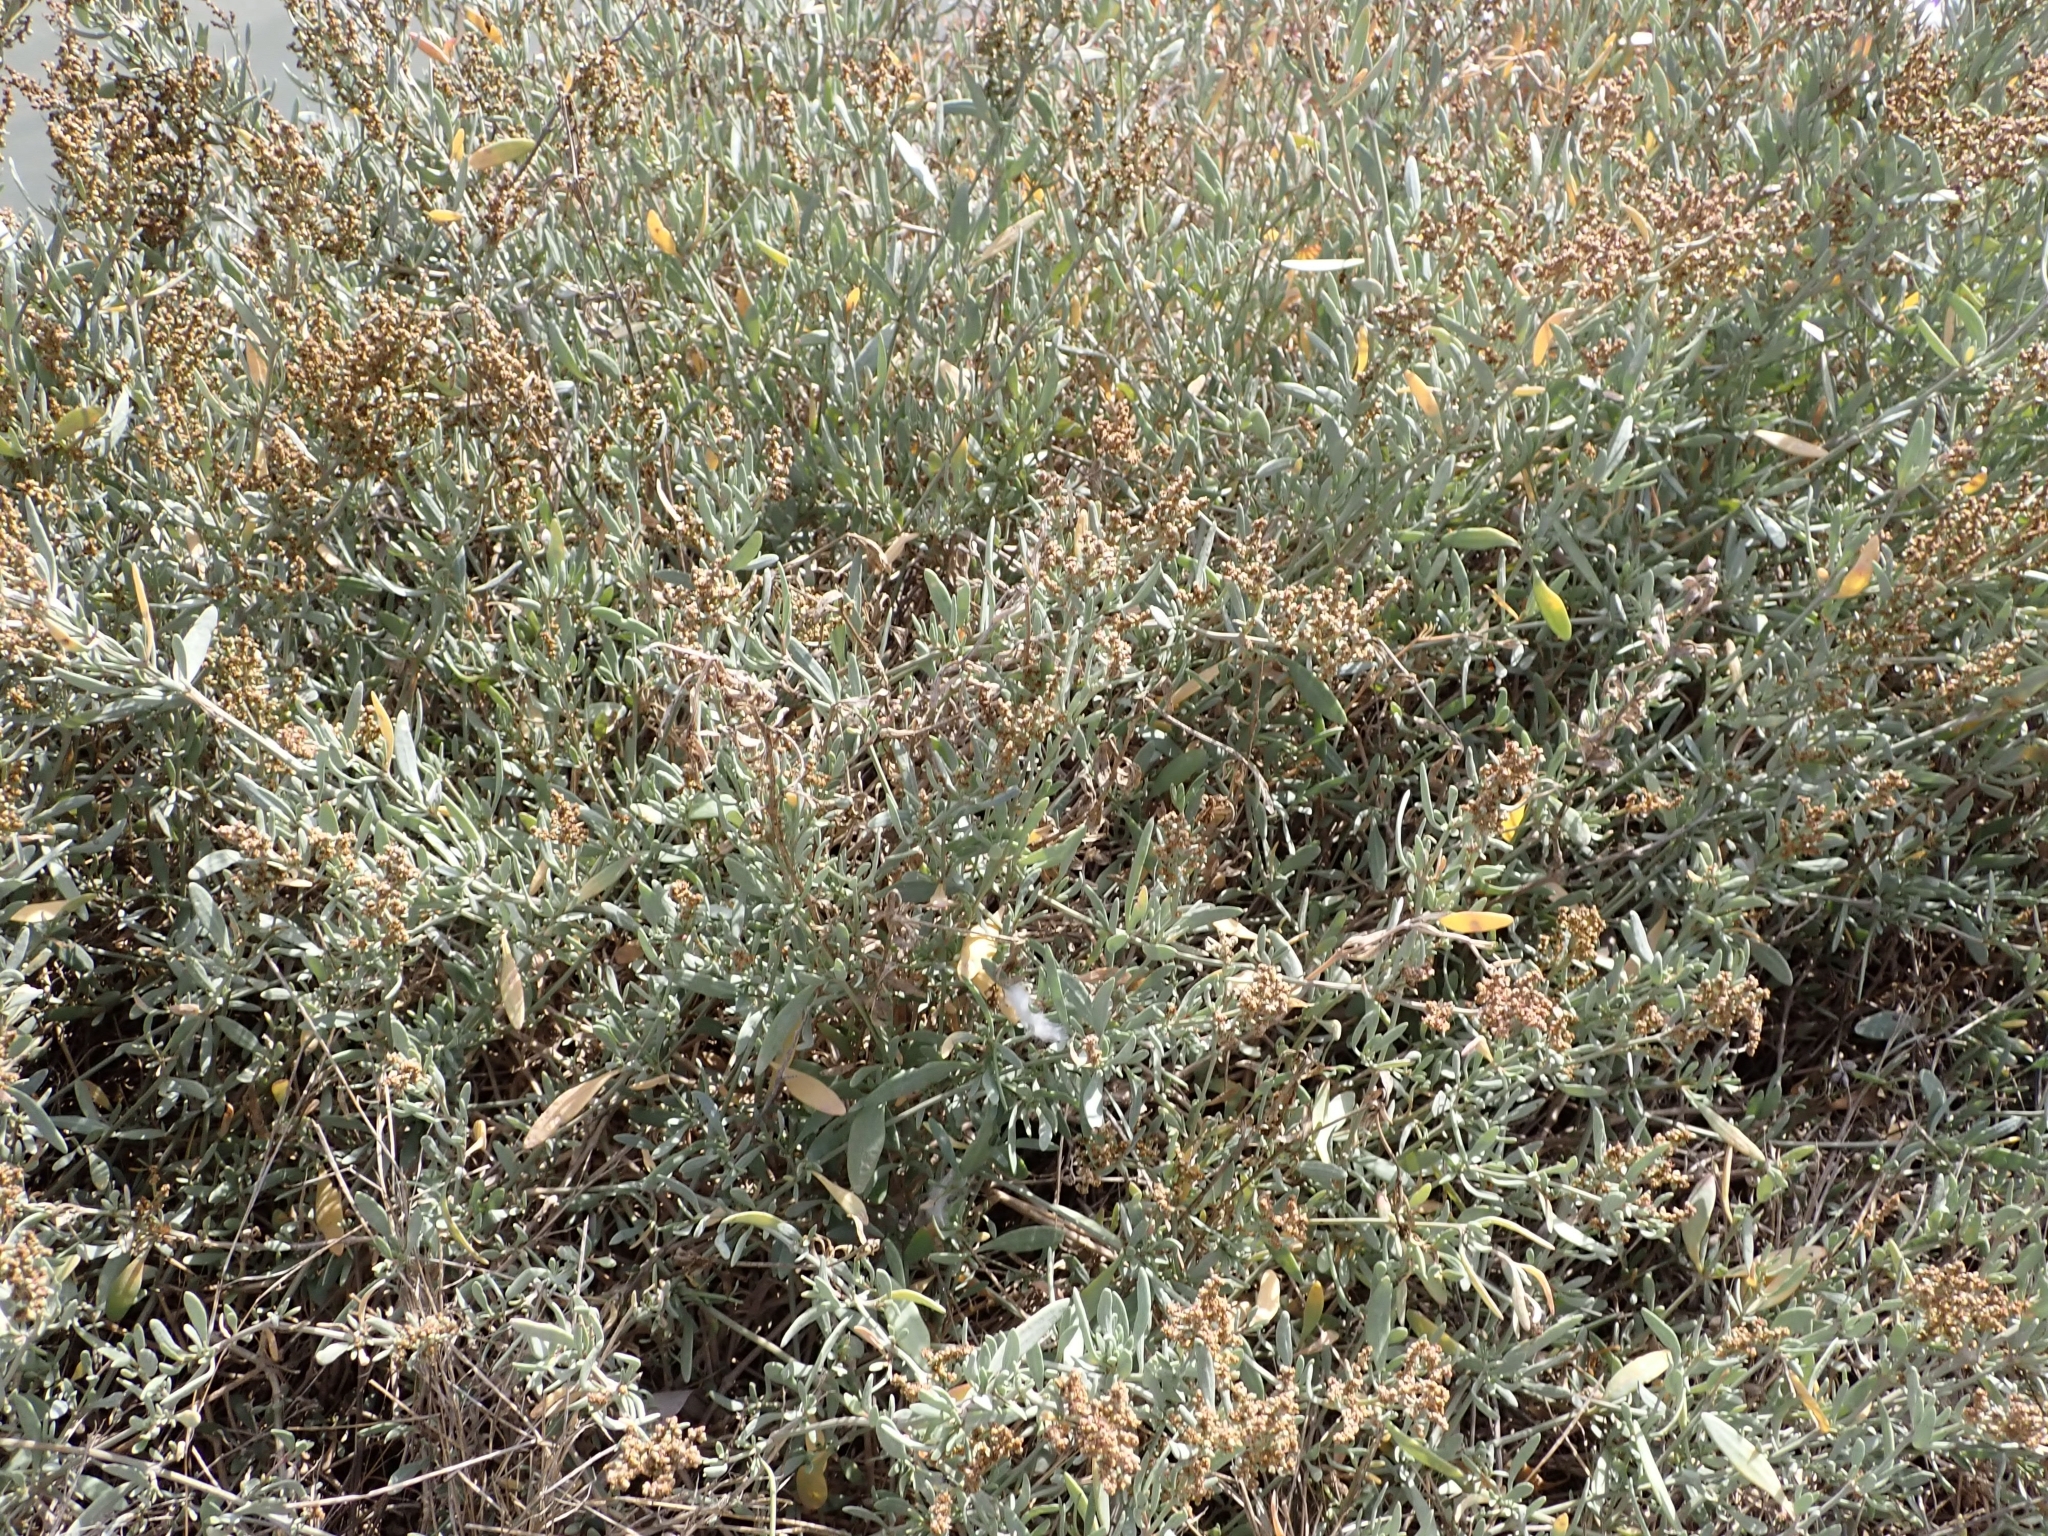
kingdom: Plantae
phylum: Tracheophyta
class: Magnoliopsida
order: Caryophyllales
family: Amaranthaceae
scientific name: Amaranthaceae
